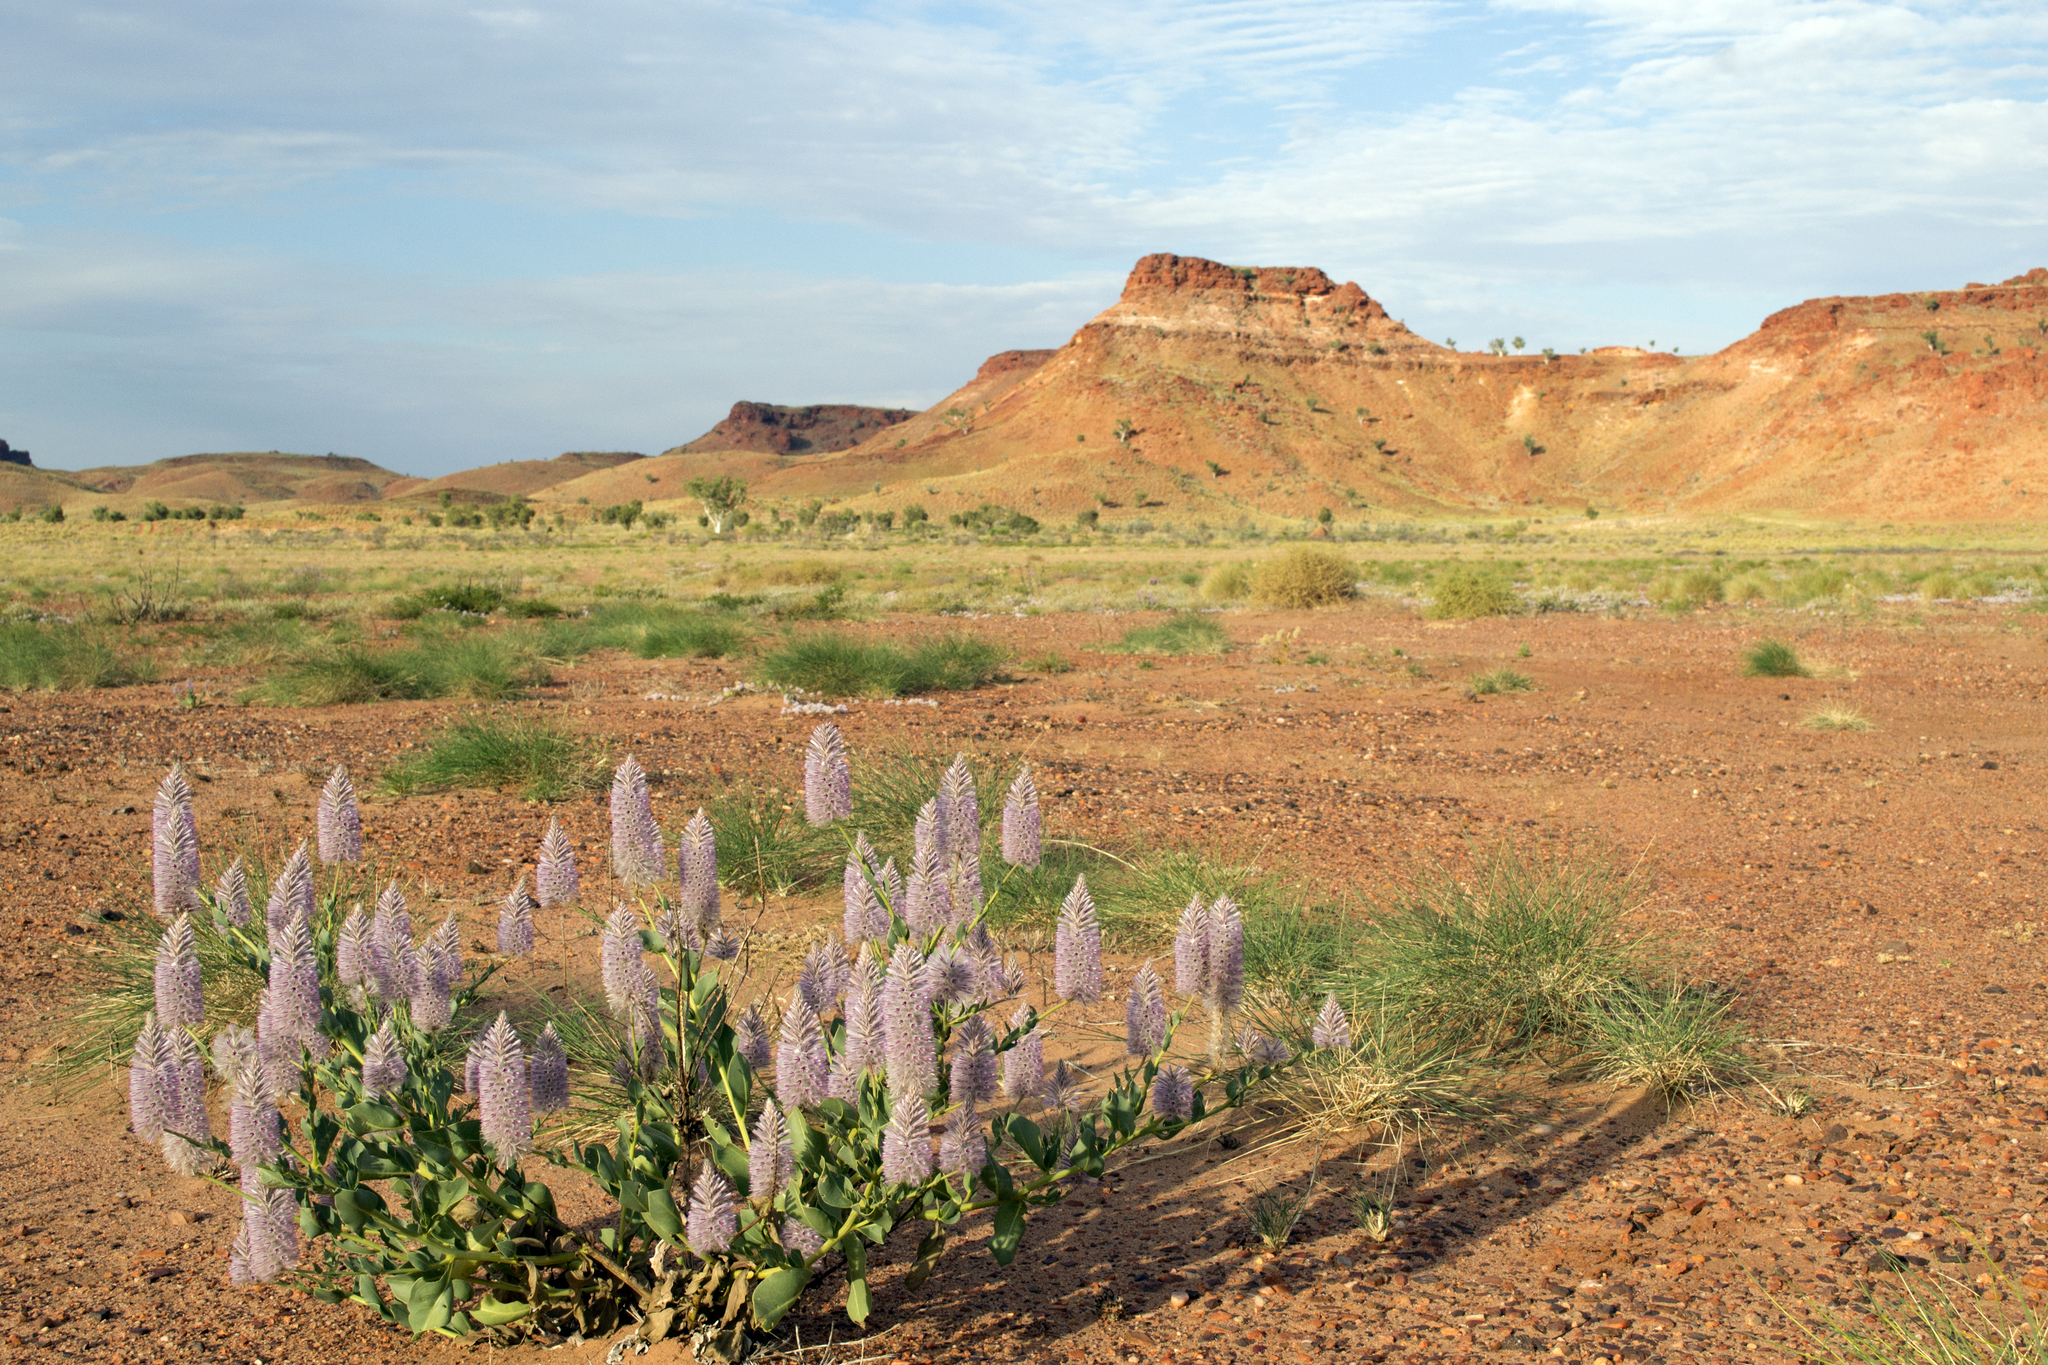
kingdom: Plantae
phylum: Tracheophyta
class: Magnoliopsida
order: Caryophyllales
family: Amaranthaceae
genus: Ptilotus
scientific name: Ptilotus exaltatus
